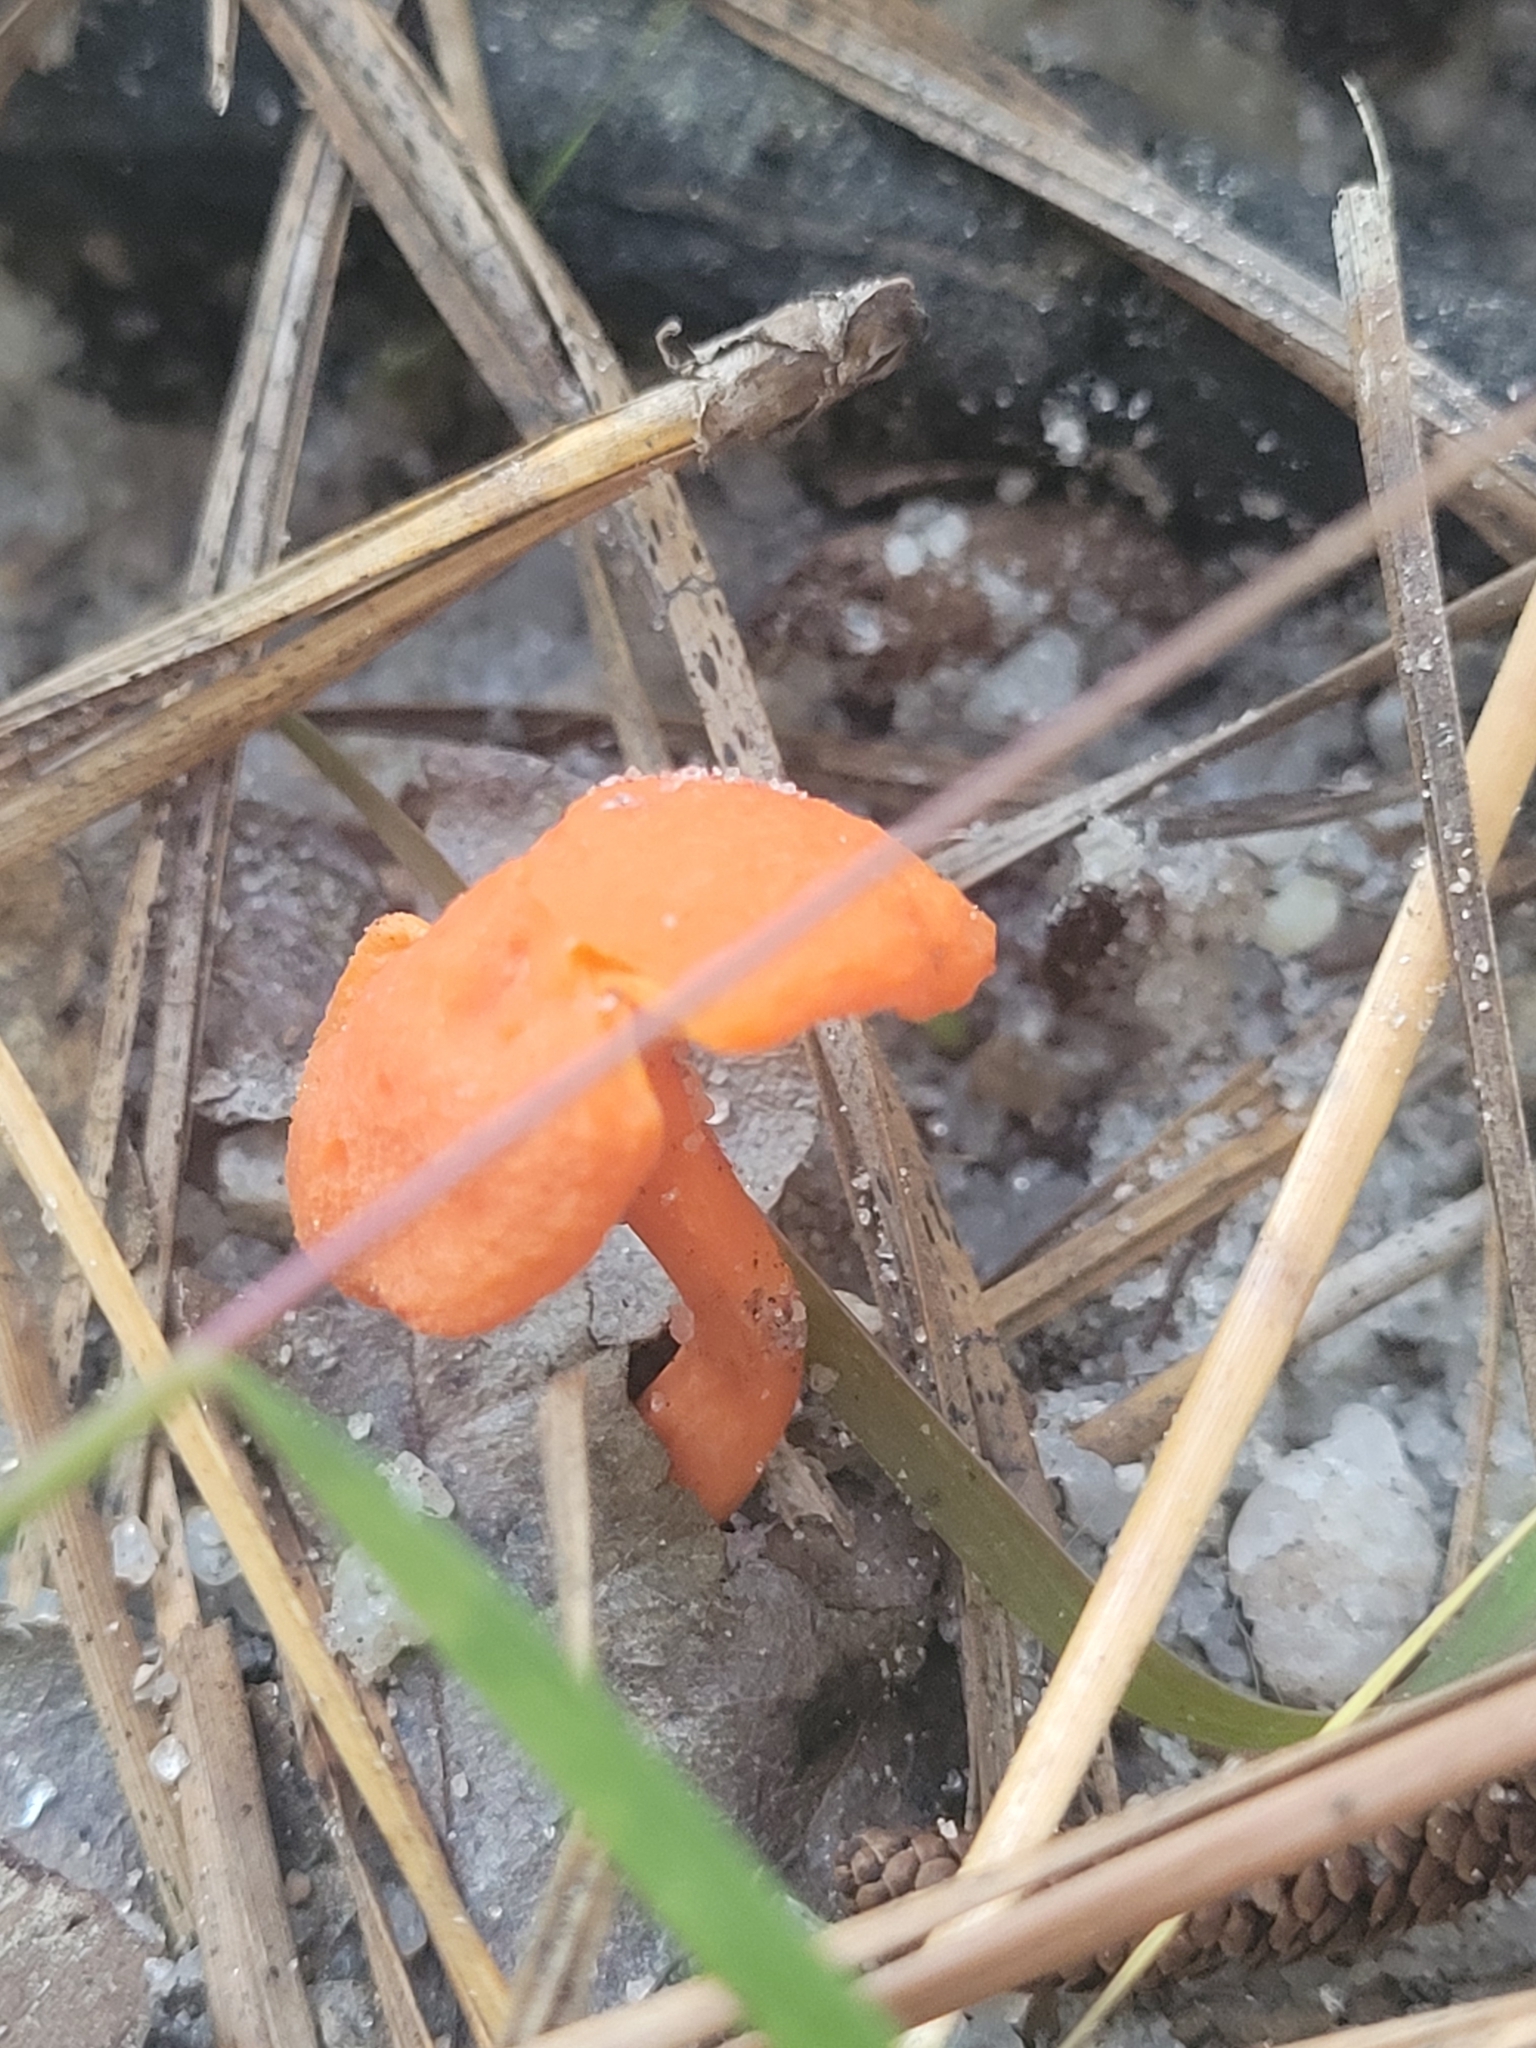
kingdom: Fungi
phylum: Basidiomycota
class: Agaricomycetes
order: Cantharellales
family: Hydnaceae
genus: Cantharellus
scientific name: Cantharellus cinnabarinus
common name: Cinnabar chanterelle
